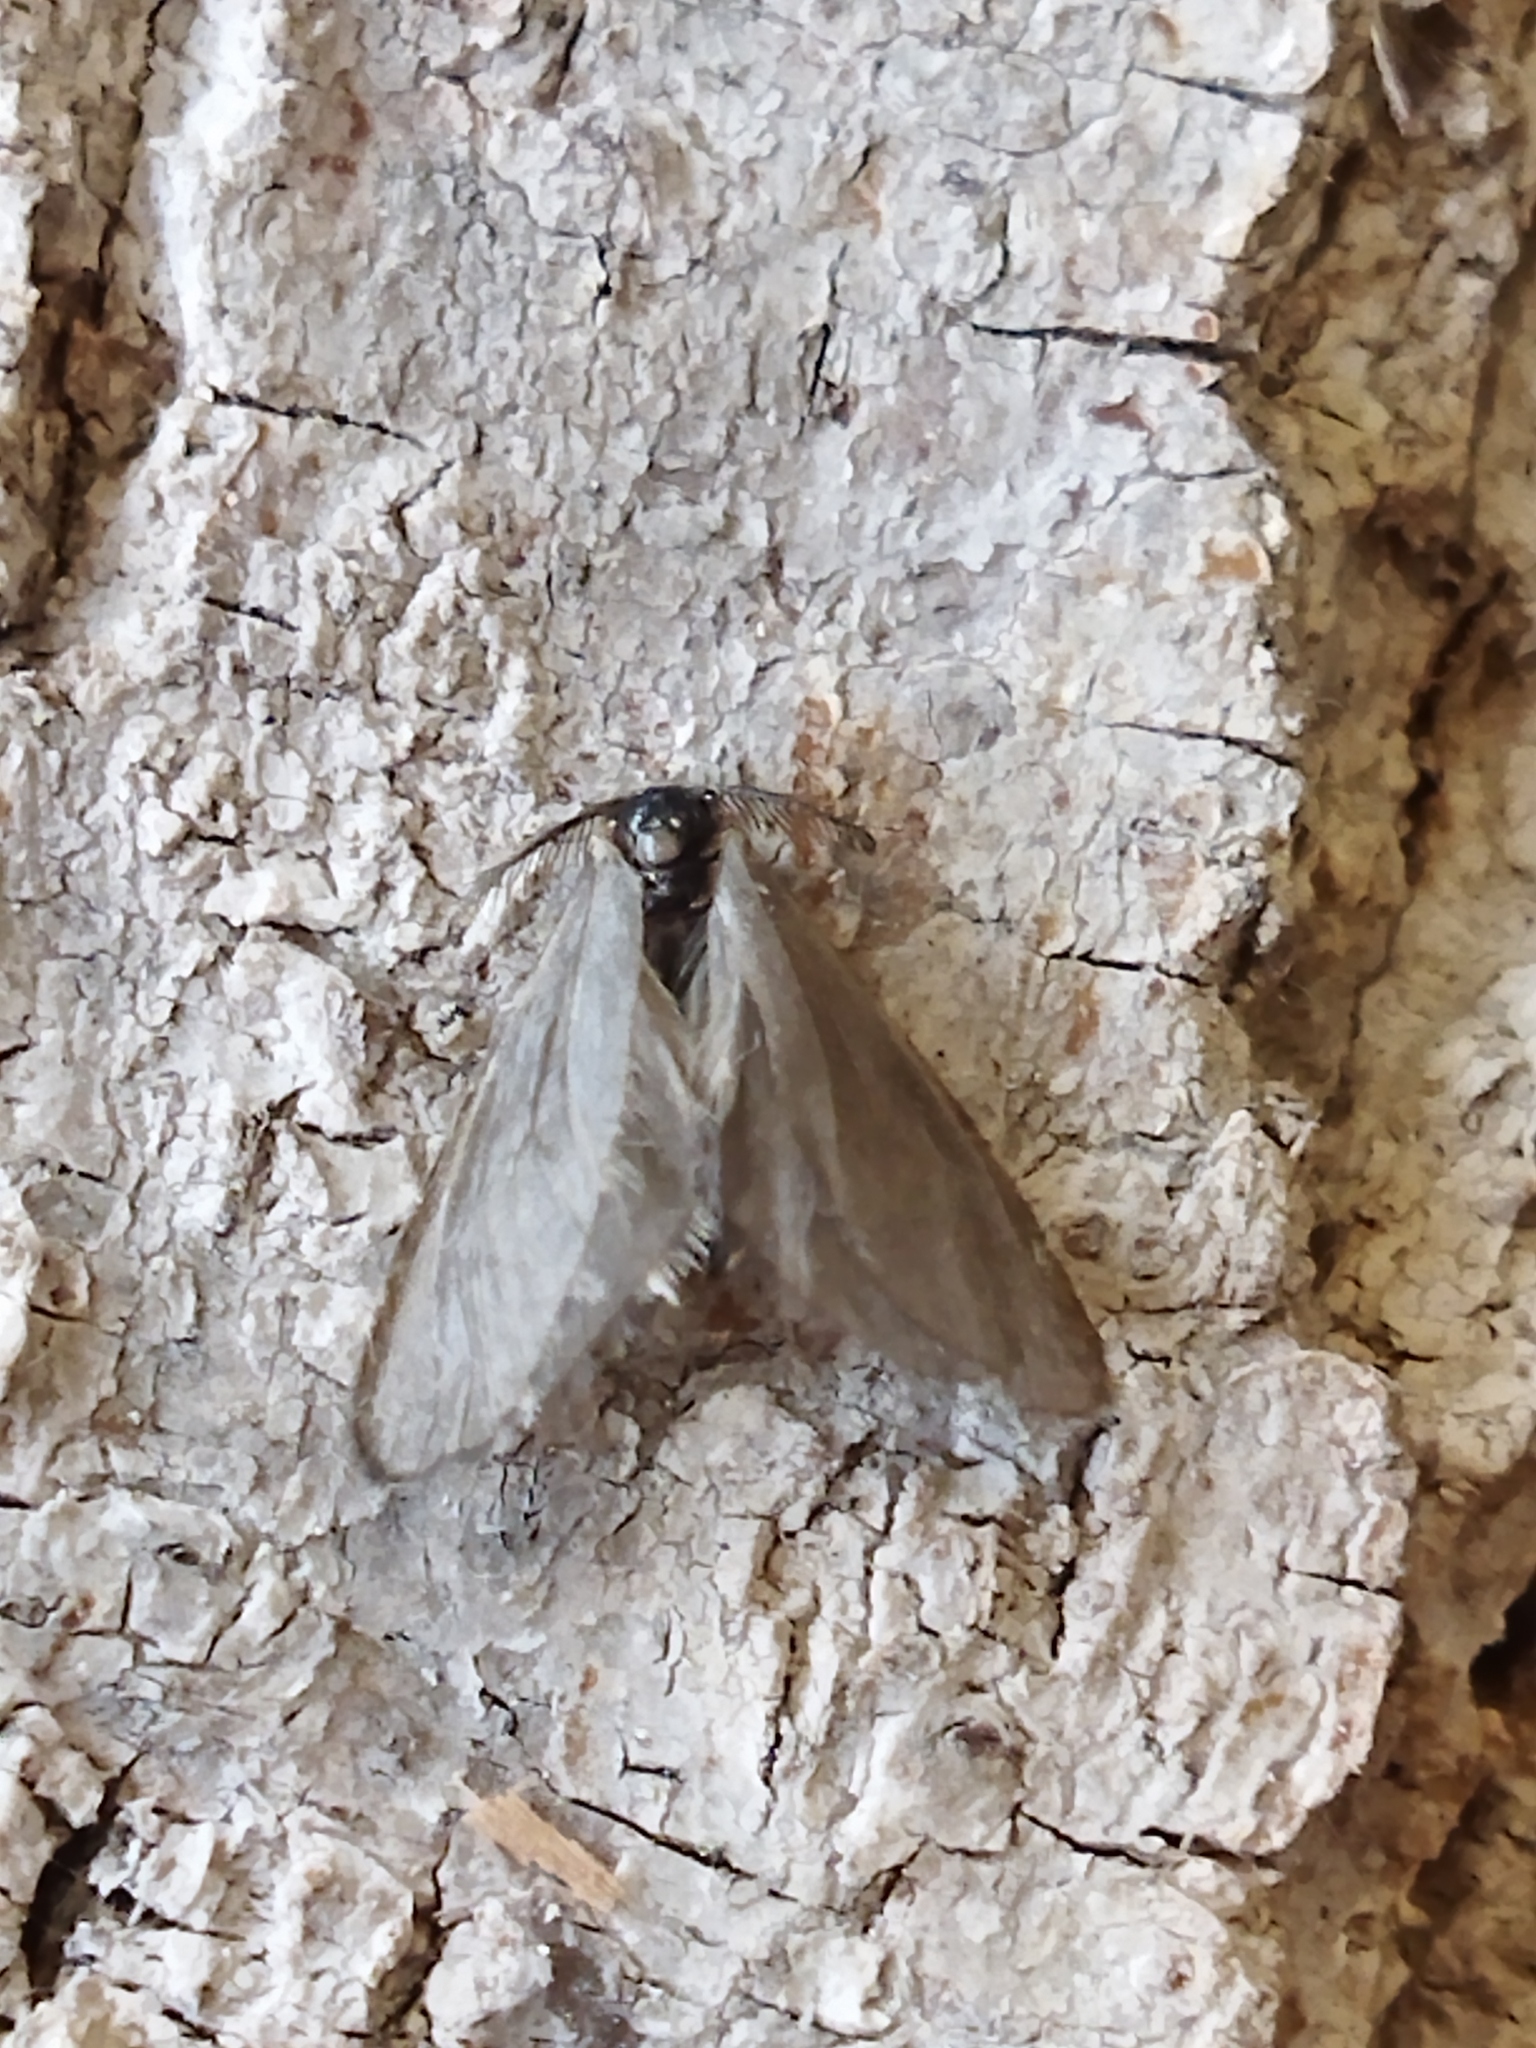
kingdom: Animalia
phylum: Arthropoda
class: Insecta
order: Lepidoptera
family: Psychidae
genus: Rebelia
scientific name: Rebelia perlucidella
